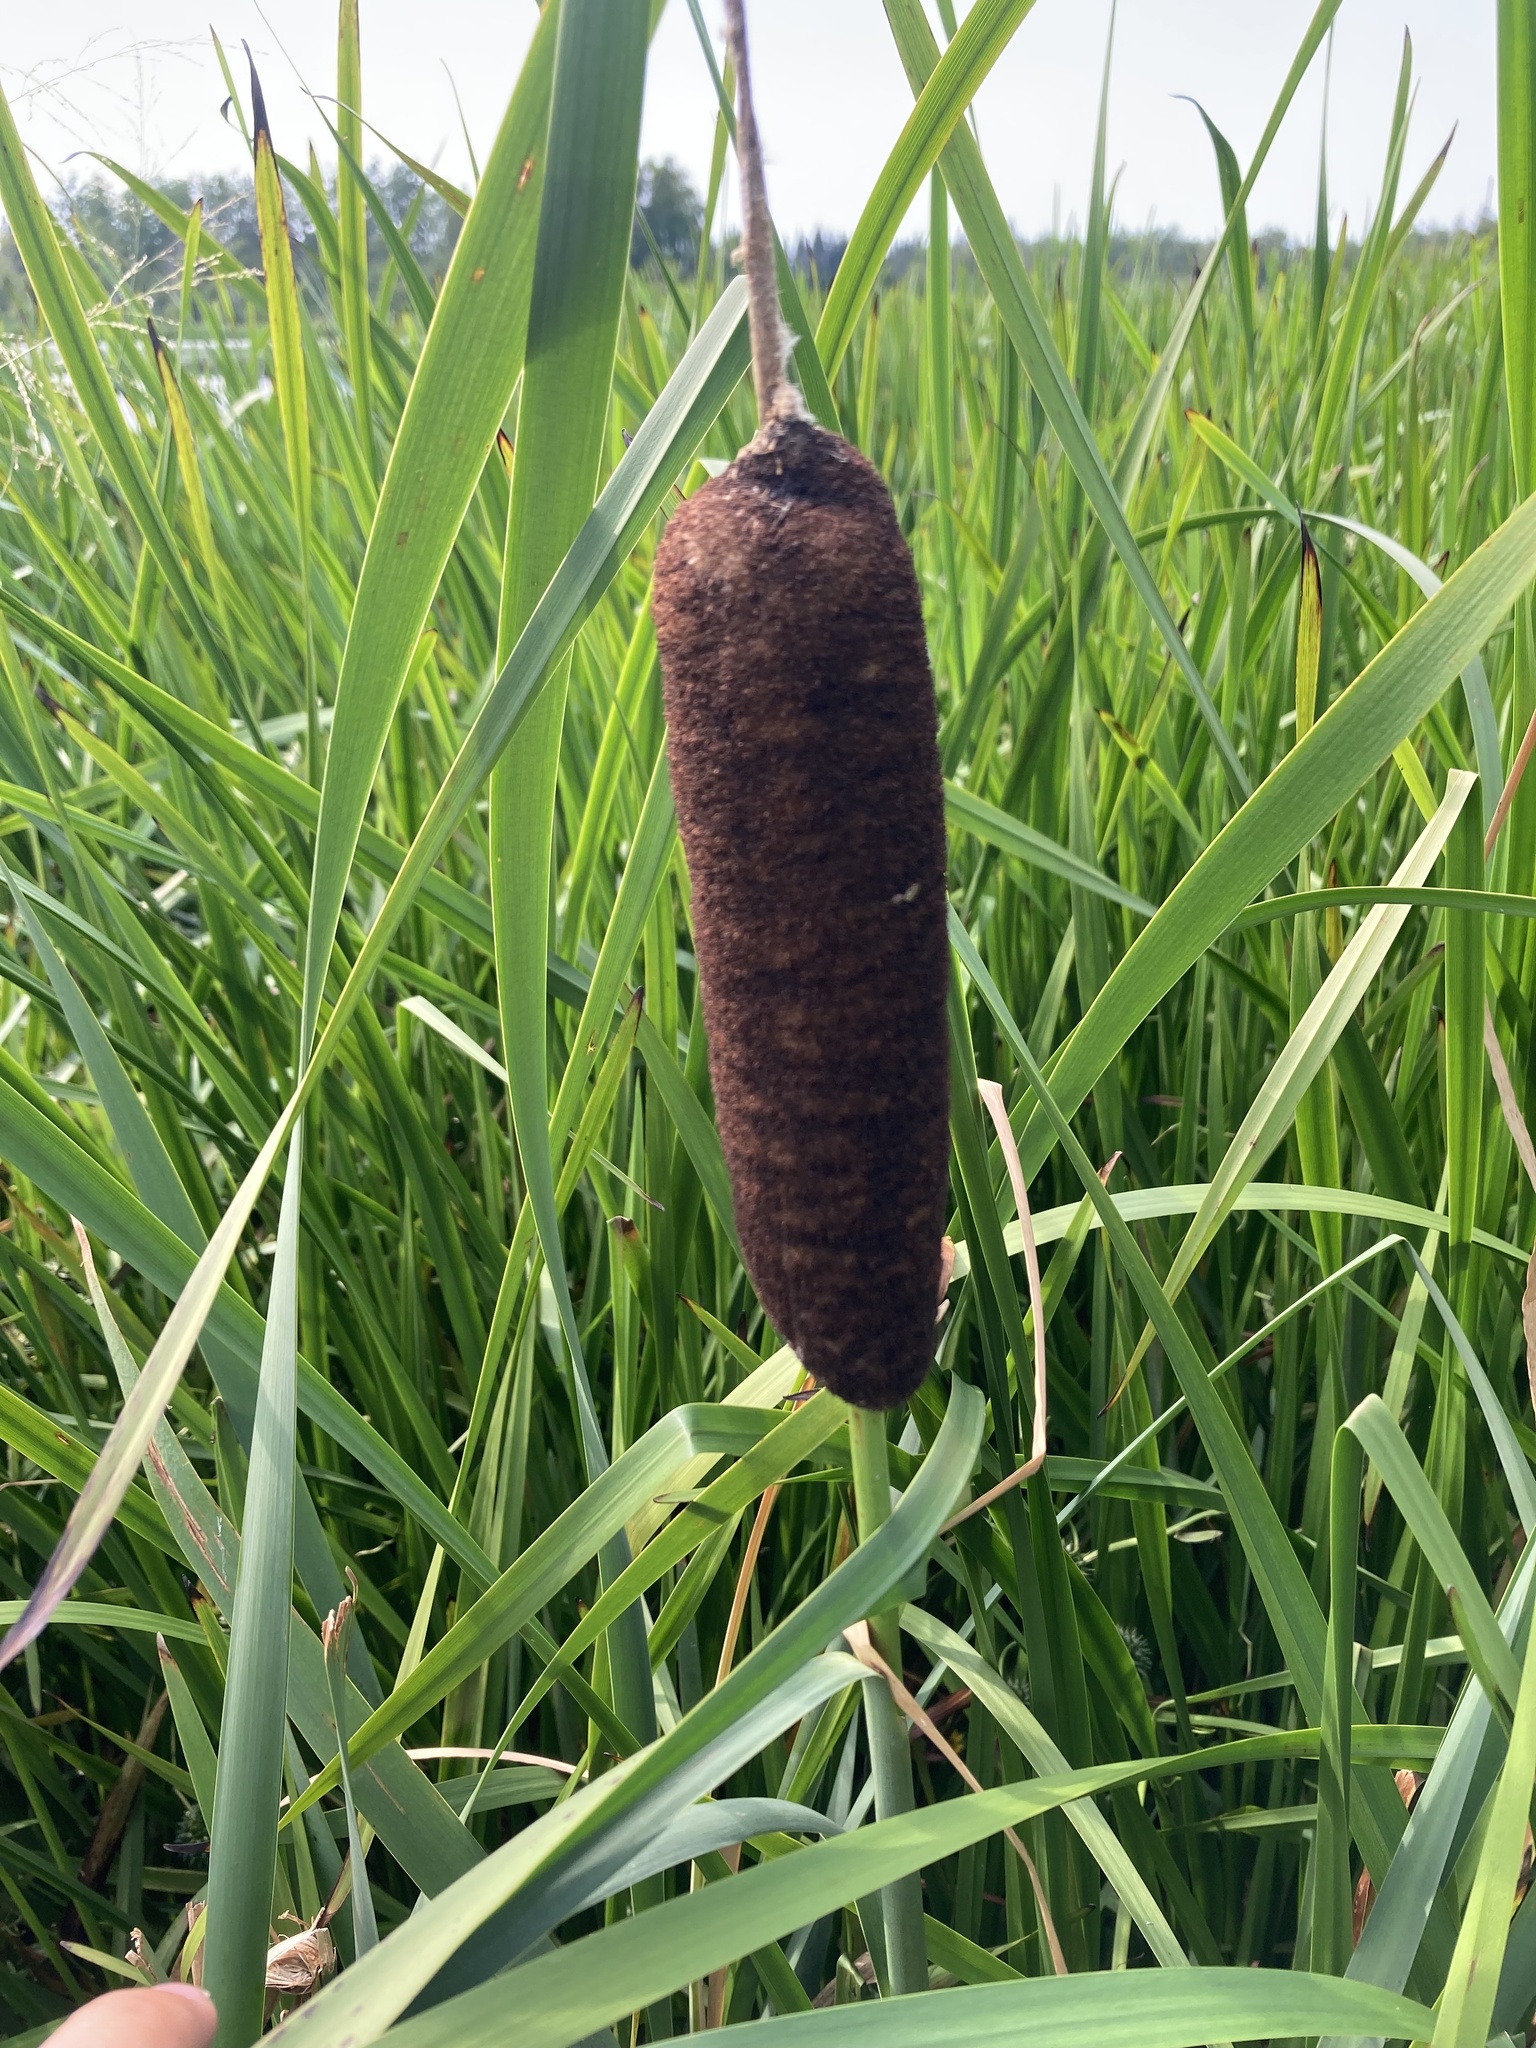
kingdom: Plantae
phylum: Tracheophyta
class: Liliopsida
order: Poales
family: Typhaceae
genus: Typha
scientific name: Typha latifolia
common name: Broadleaf cattail
